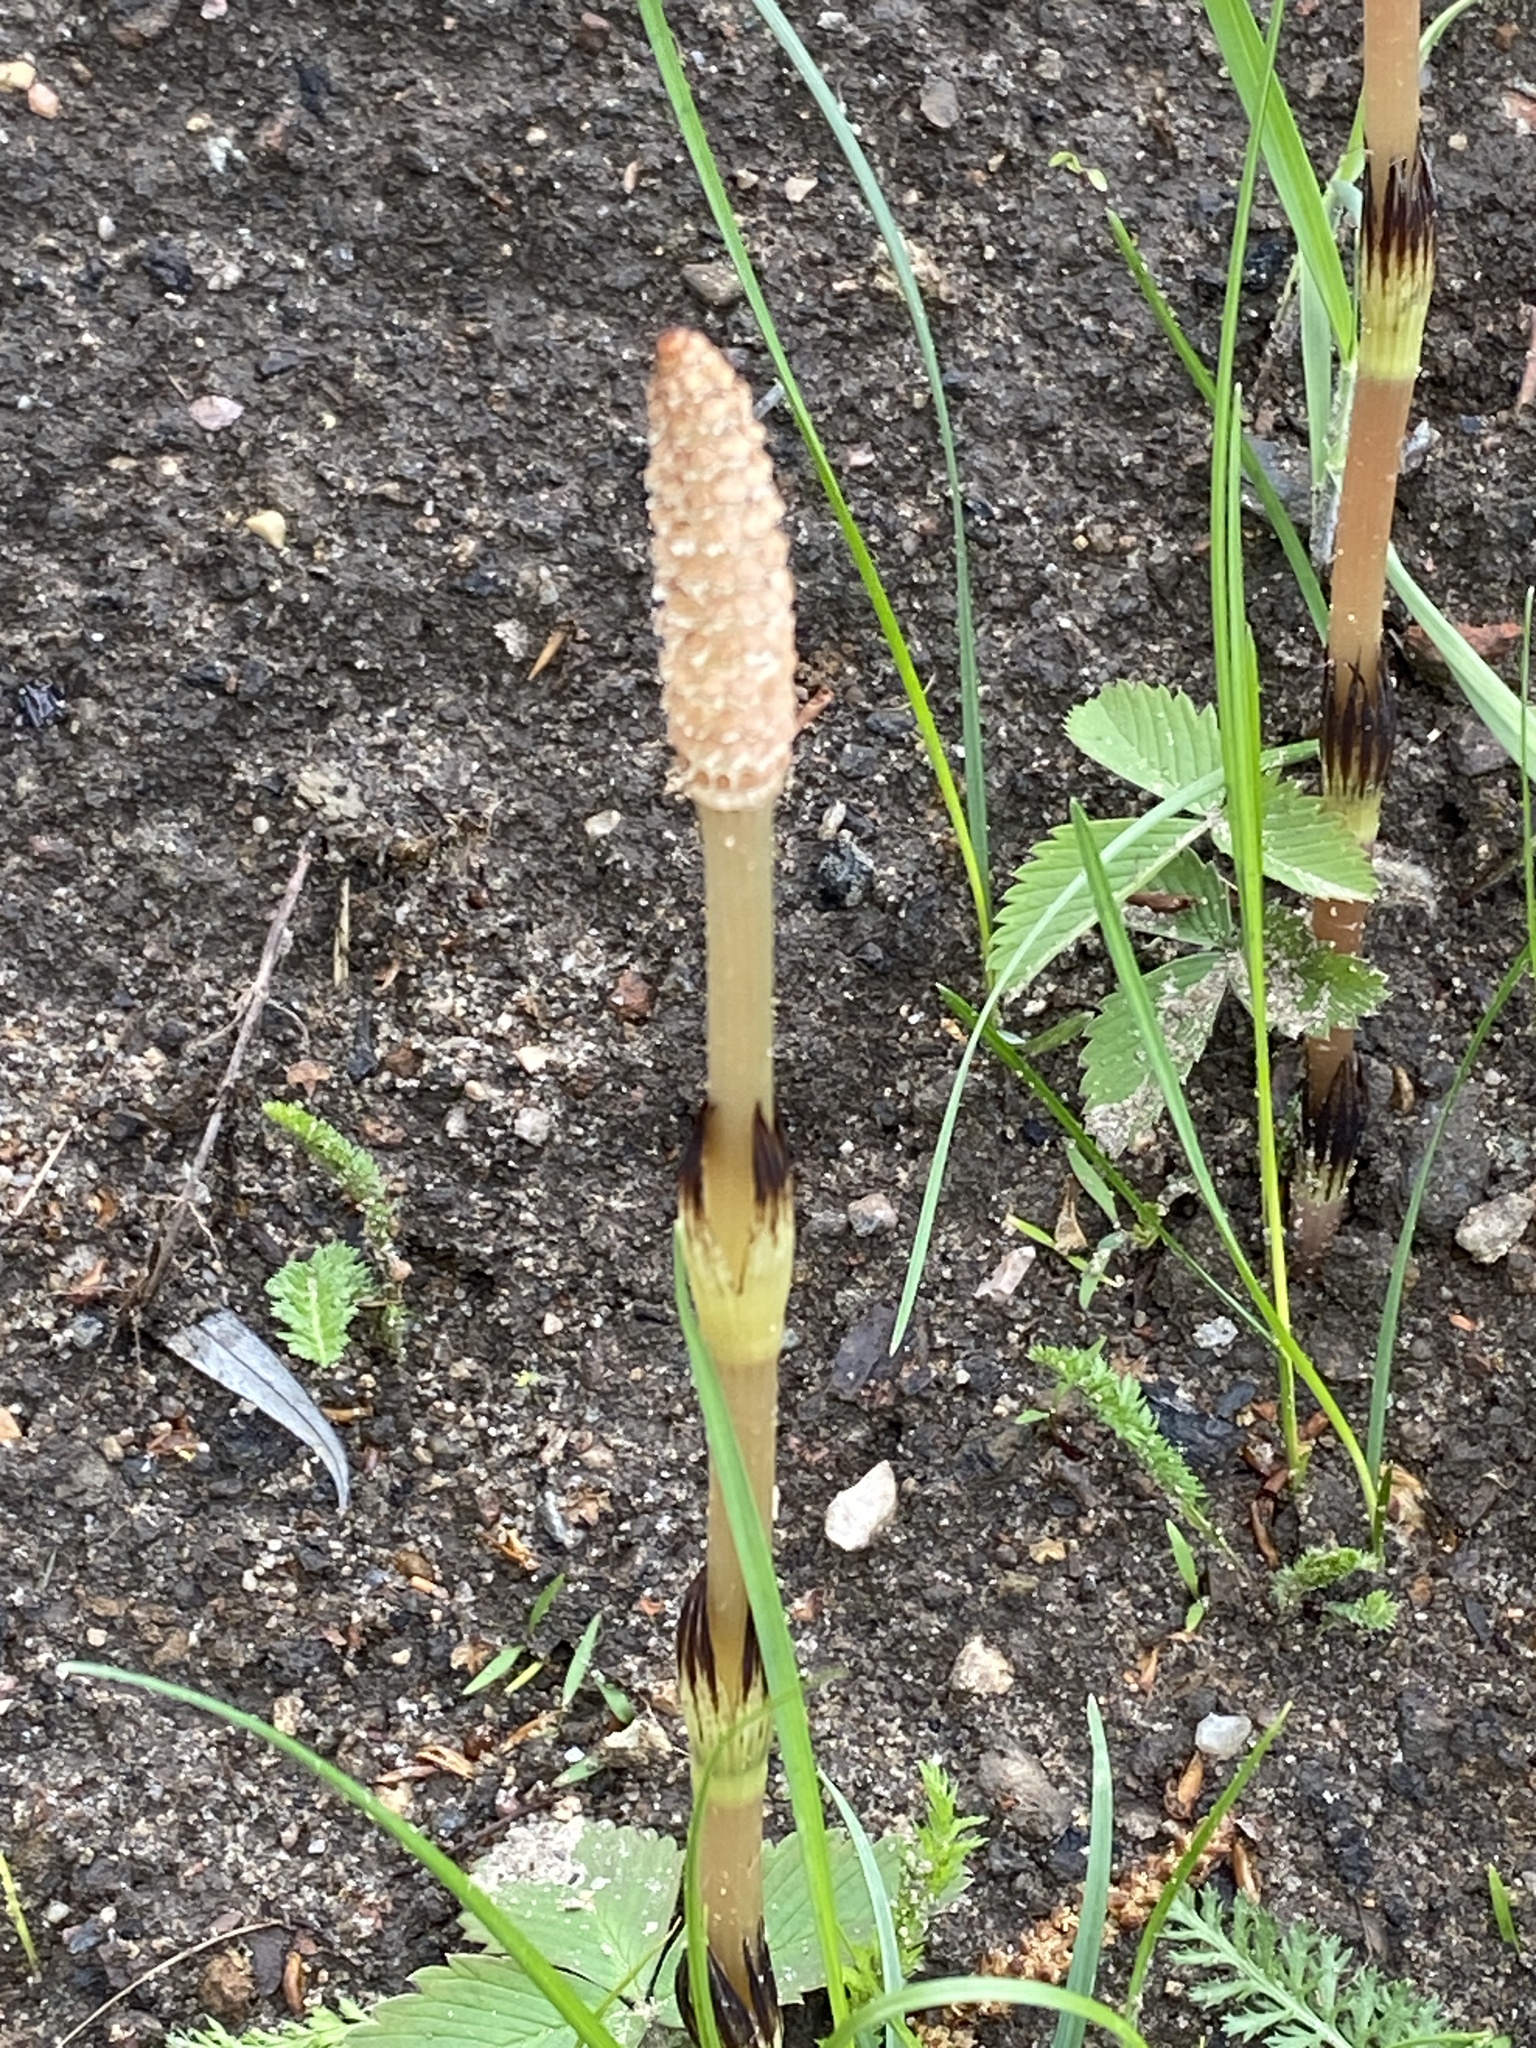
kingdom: Plantae
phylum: Tracheophyta
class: Polypodiopsida
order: Equisetales
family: Equisetaceae
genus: Equisetum
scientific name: Equisetum arvense
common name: Field horsetail
